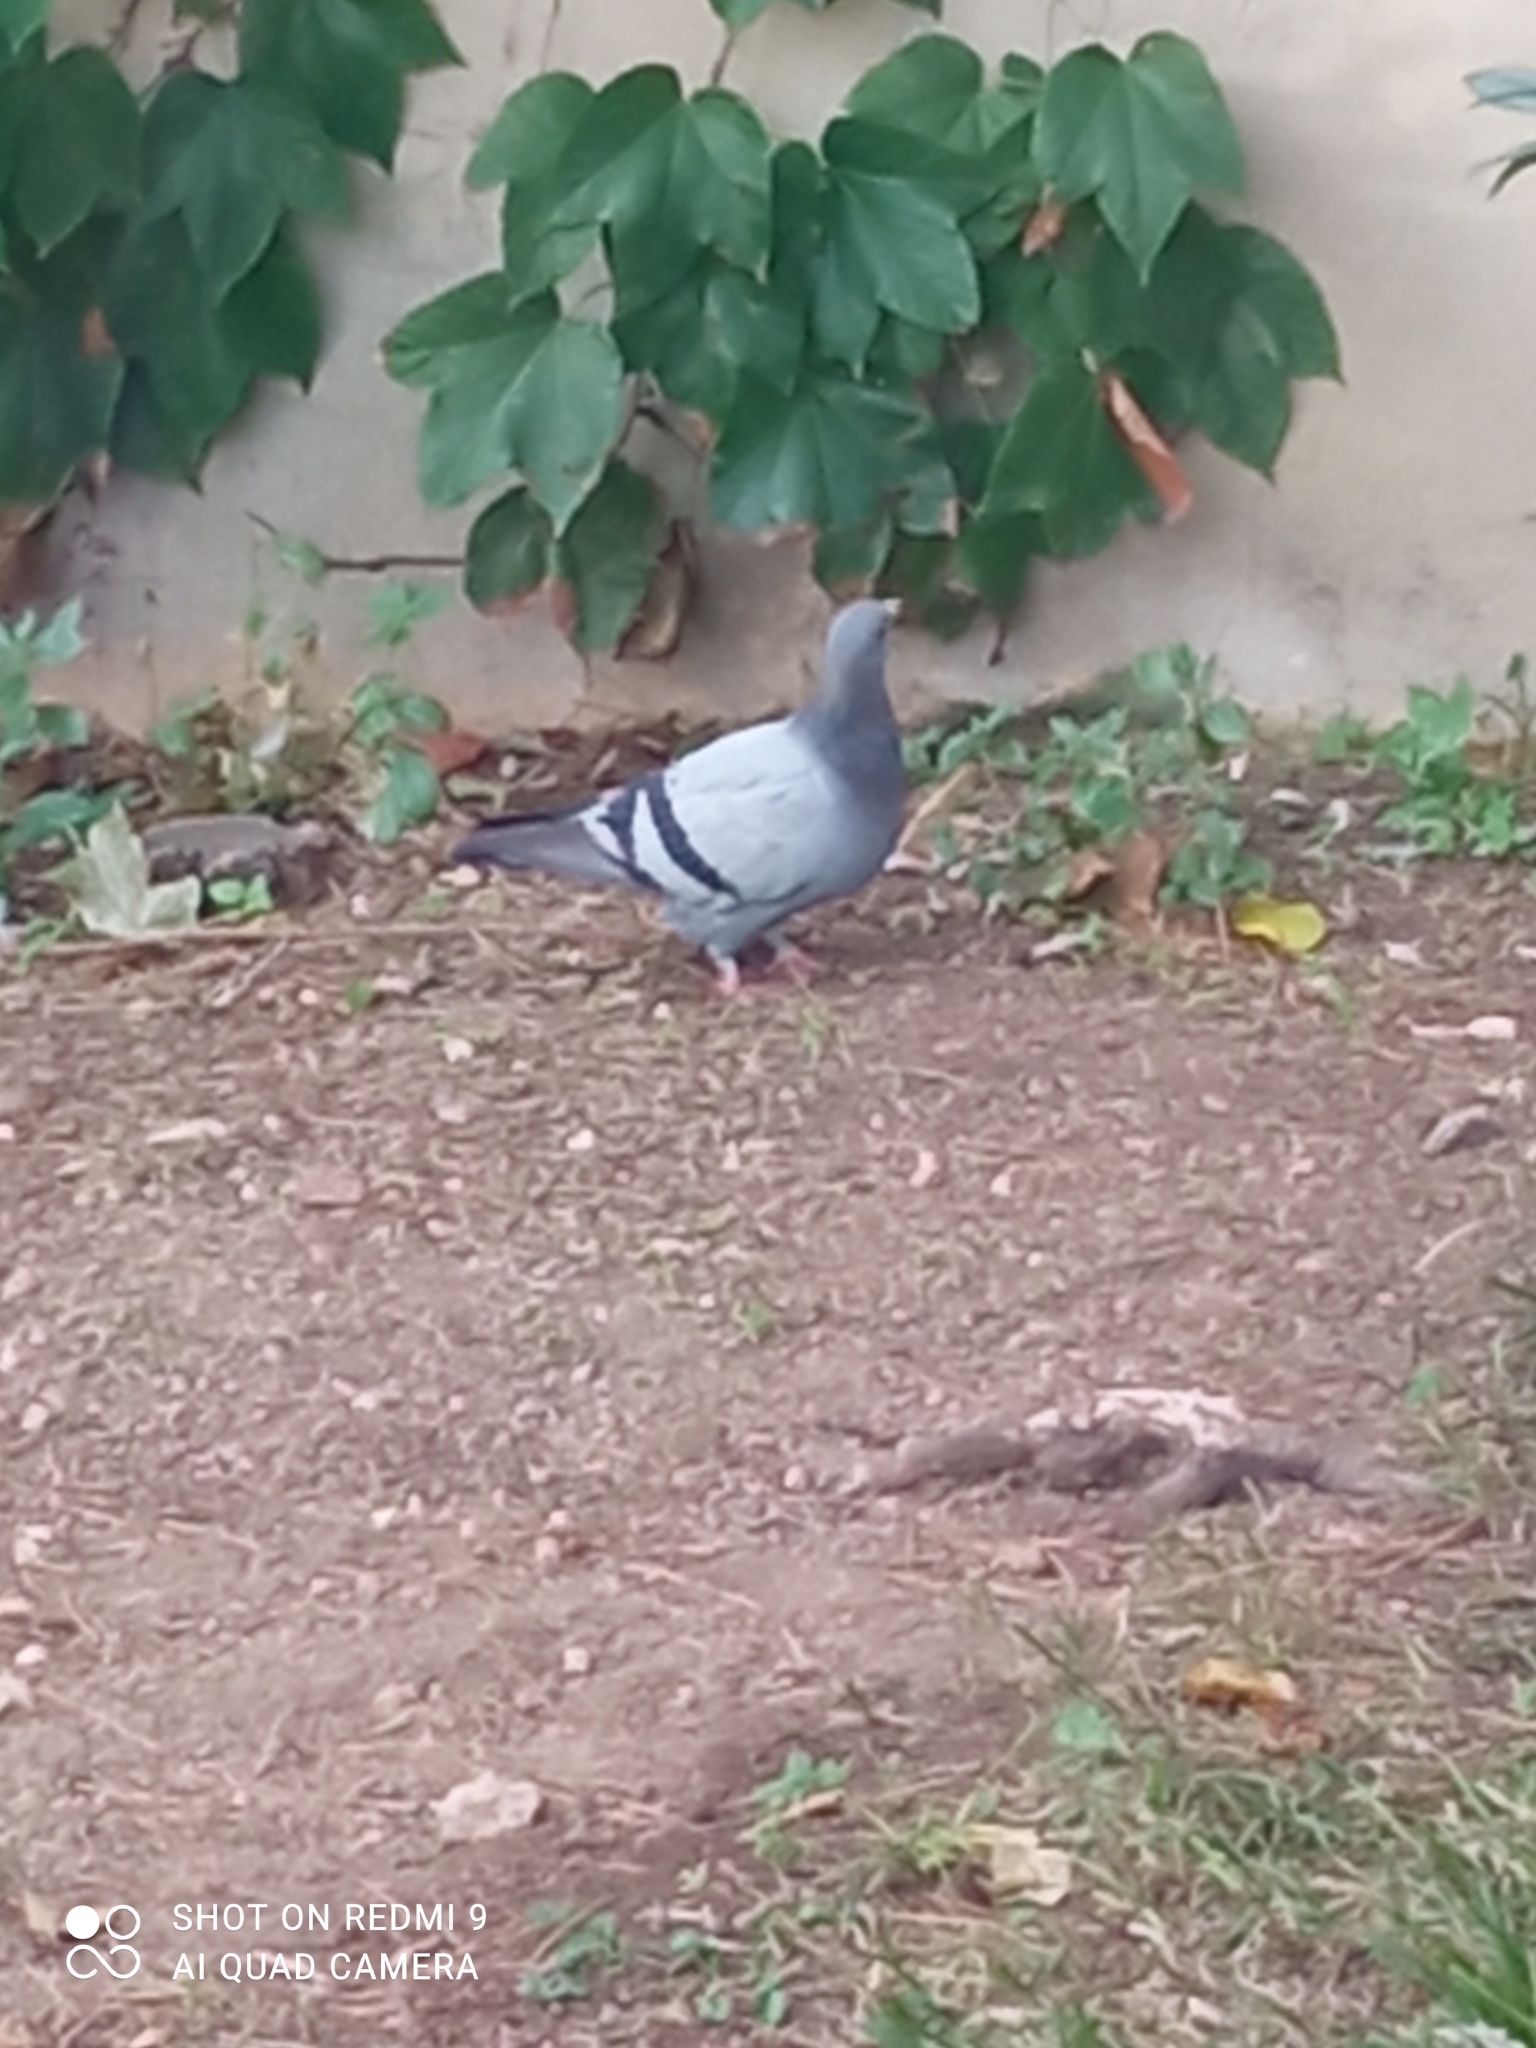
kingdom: Animalia
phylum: Chordata
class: Aves
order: Columbiformes
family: Columbidae
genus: Columba
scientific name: Columba livia
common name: Rock pigeon
